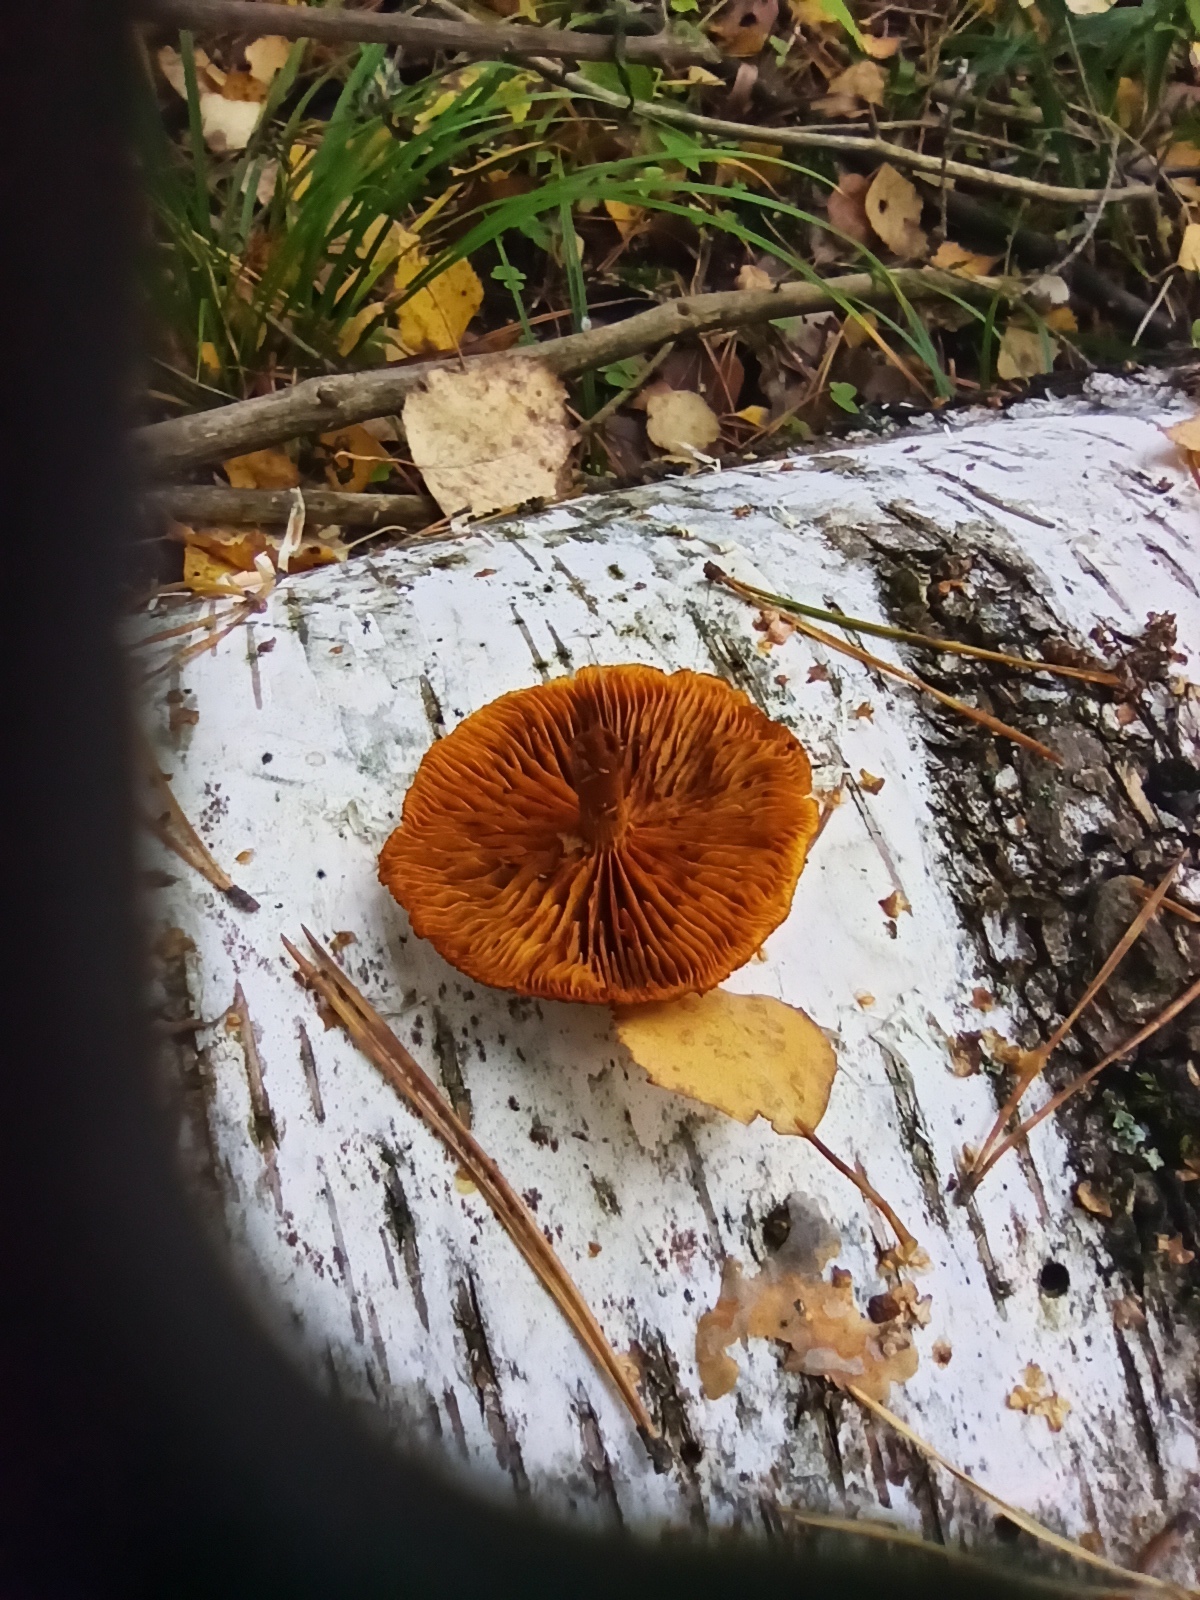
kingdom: Fungi
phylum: Basidiomycota
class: Agaricomycetes
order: Agaricales
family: Hymenogastraceae
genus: Gymnopilus
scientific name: Gymnopilus penetrans
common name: Common rustgill
